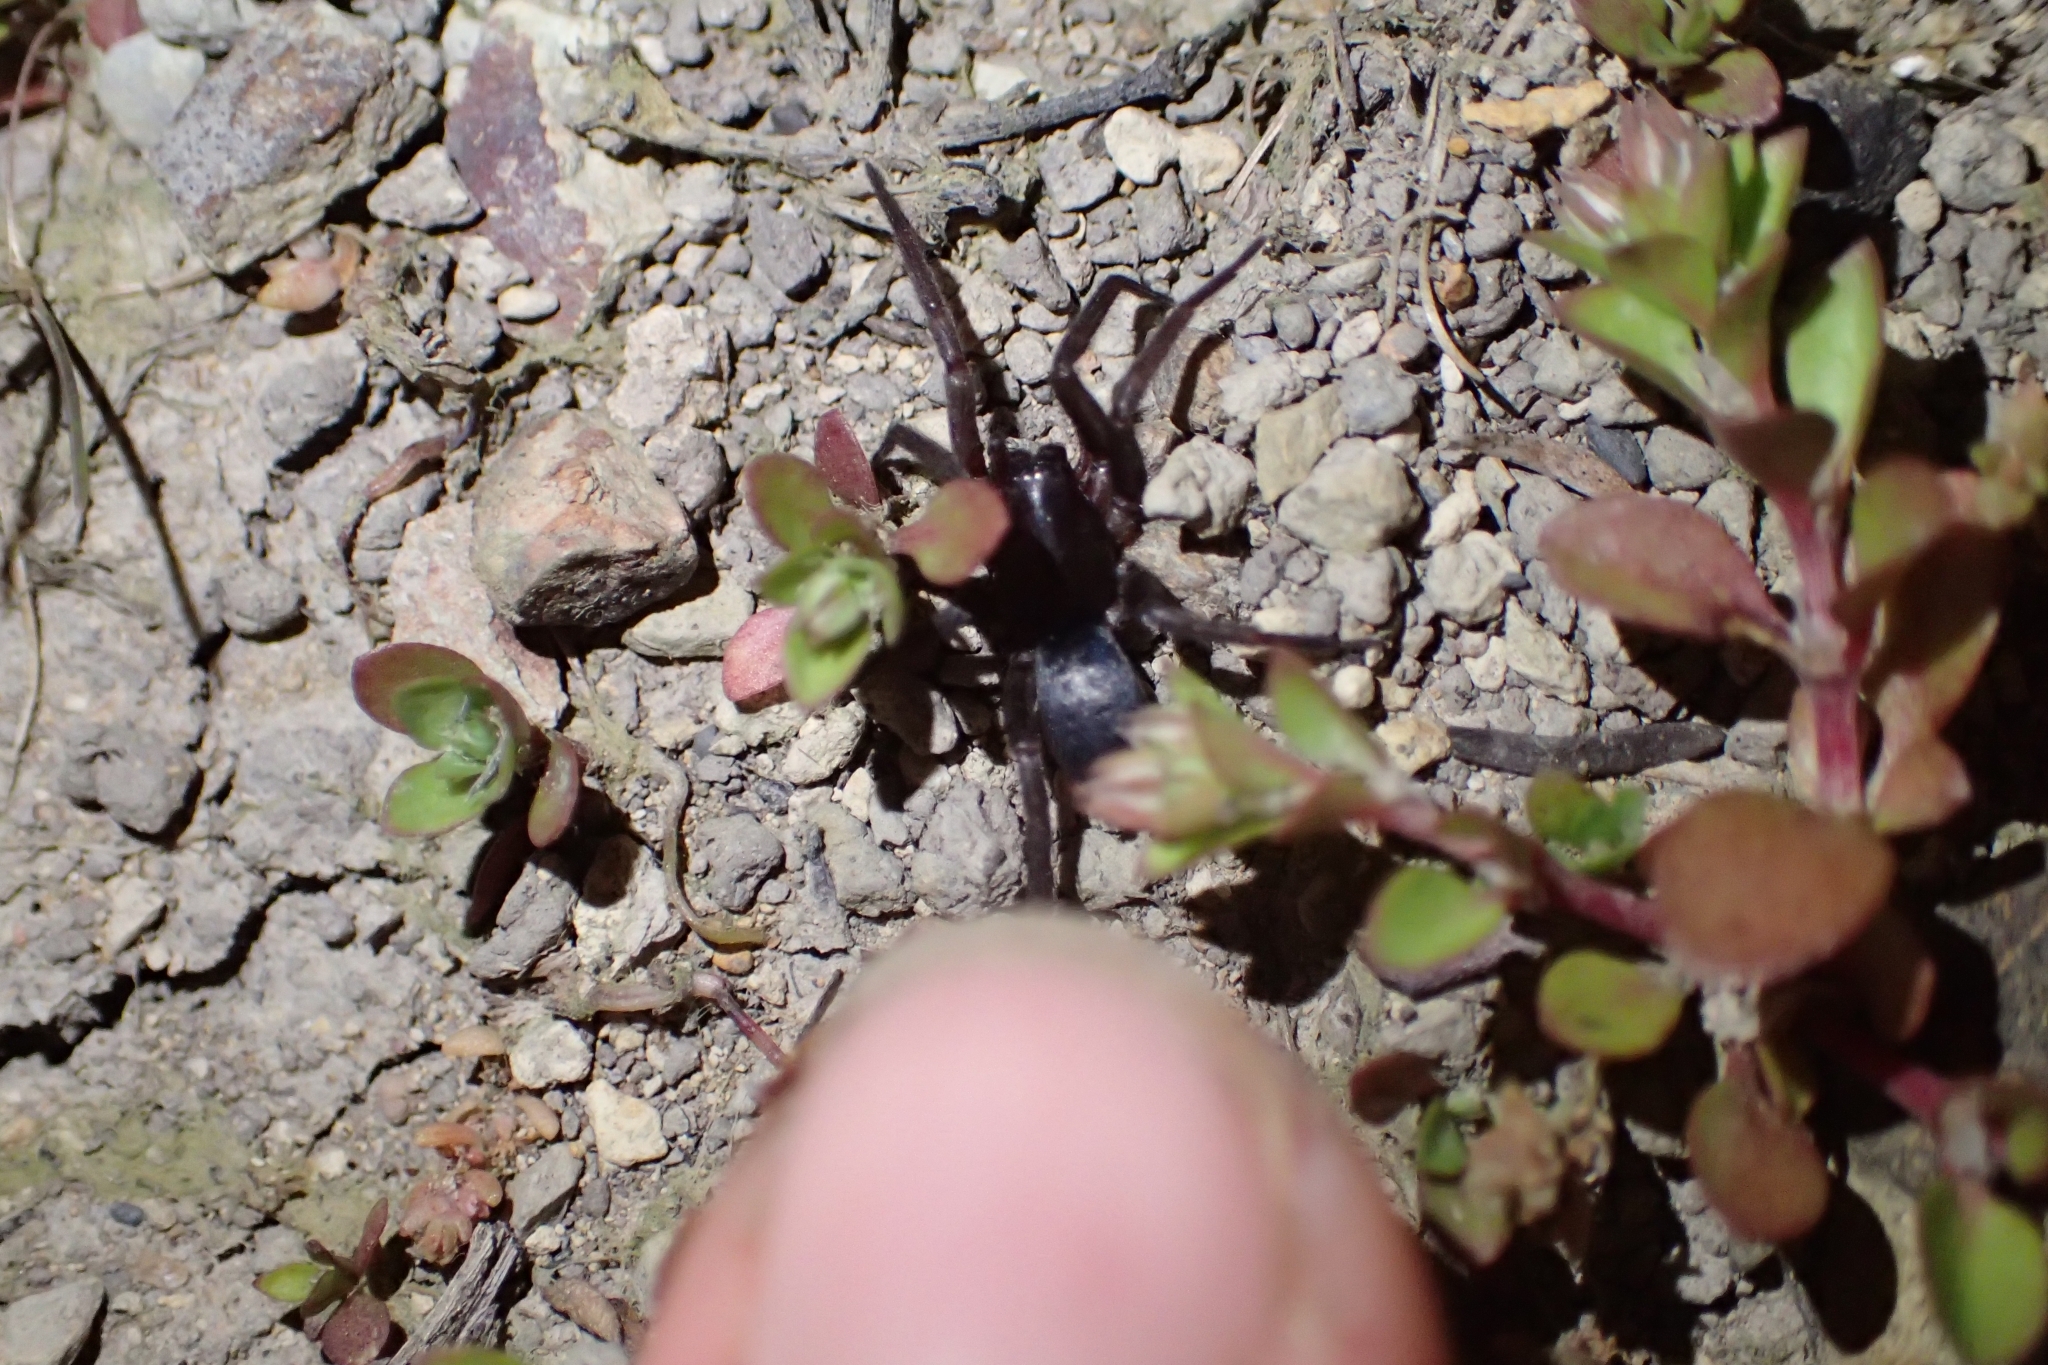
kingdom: Animalia
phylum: Arthropoda
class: Arachnida
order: Araneae
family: Gnaphosidae
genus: Hypodrassodes
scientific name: Hypodrassodes maoricus
